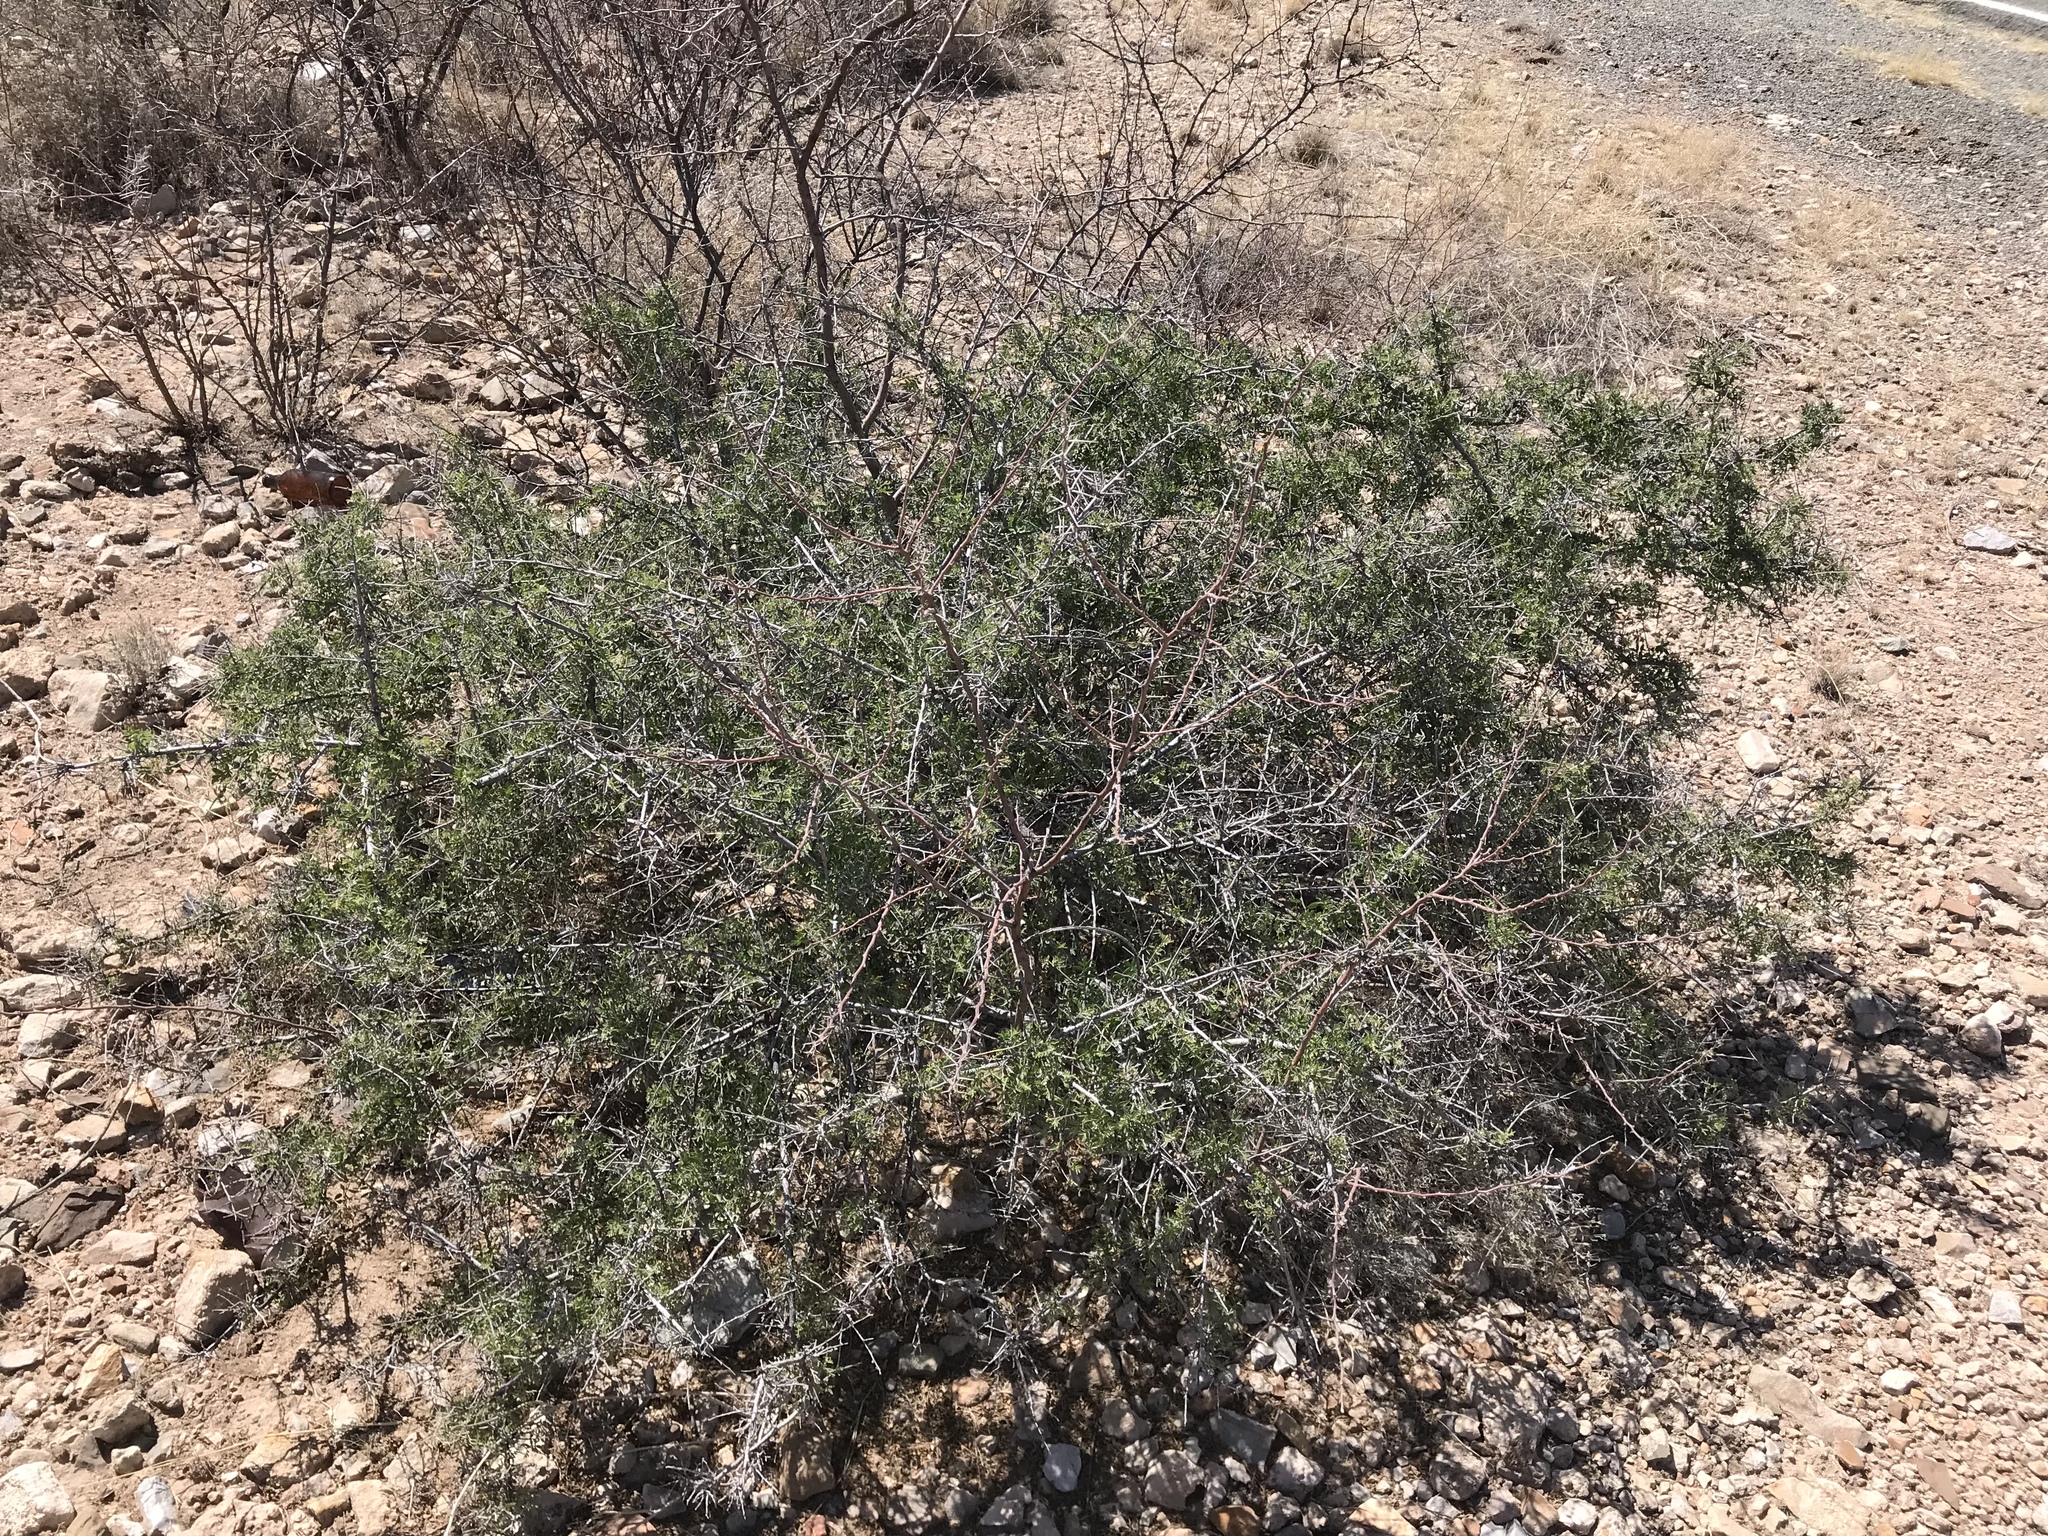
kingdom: Plantae
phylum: Tracheophyta
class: Magnoliopsida
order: Sapindales
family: Anacardiaceae
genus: Rhus
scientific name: Rhus microphylla
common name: Desert sumac
